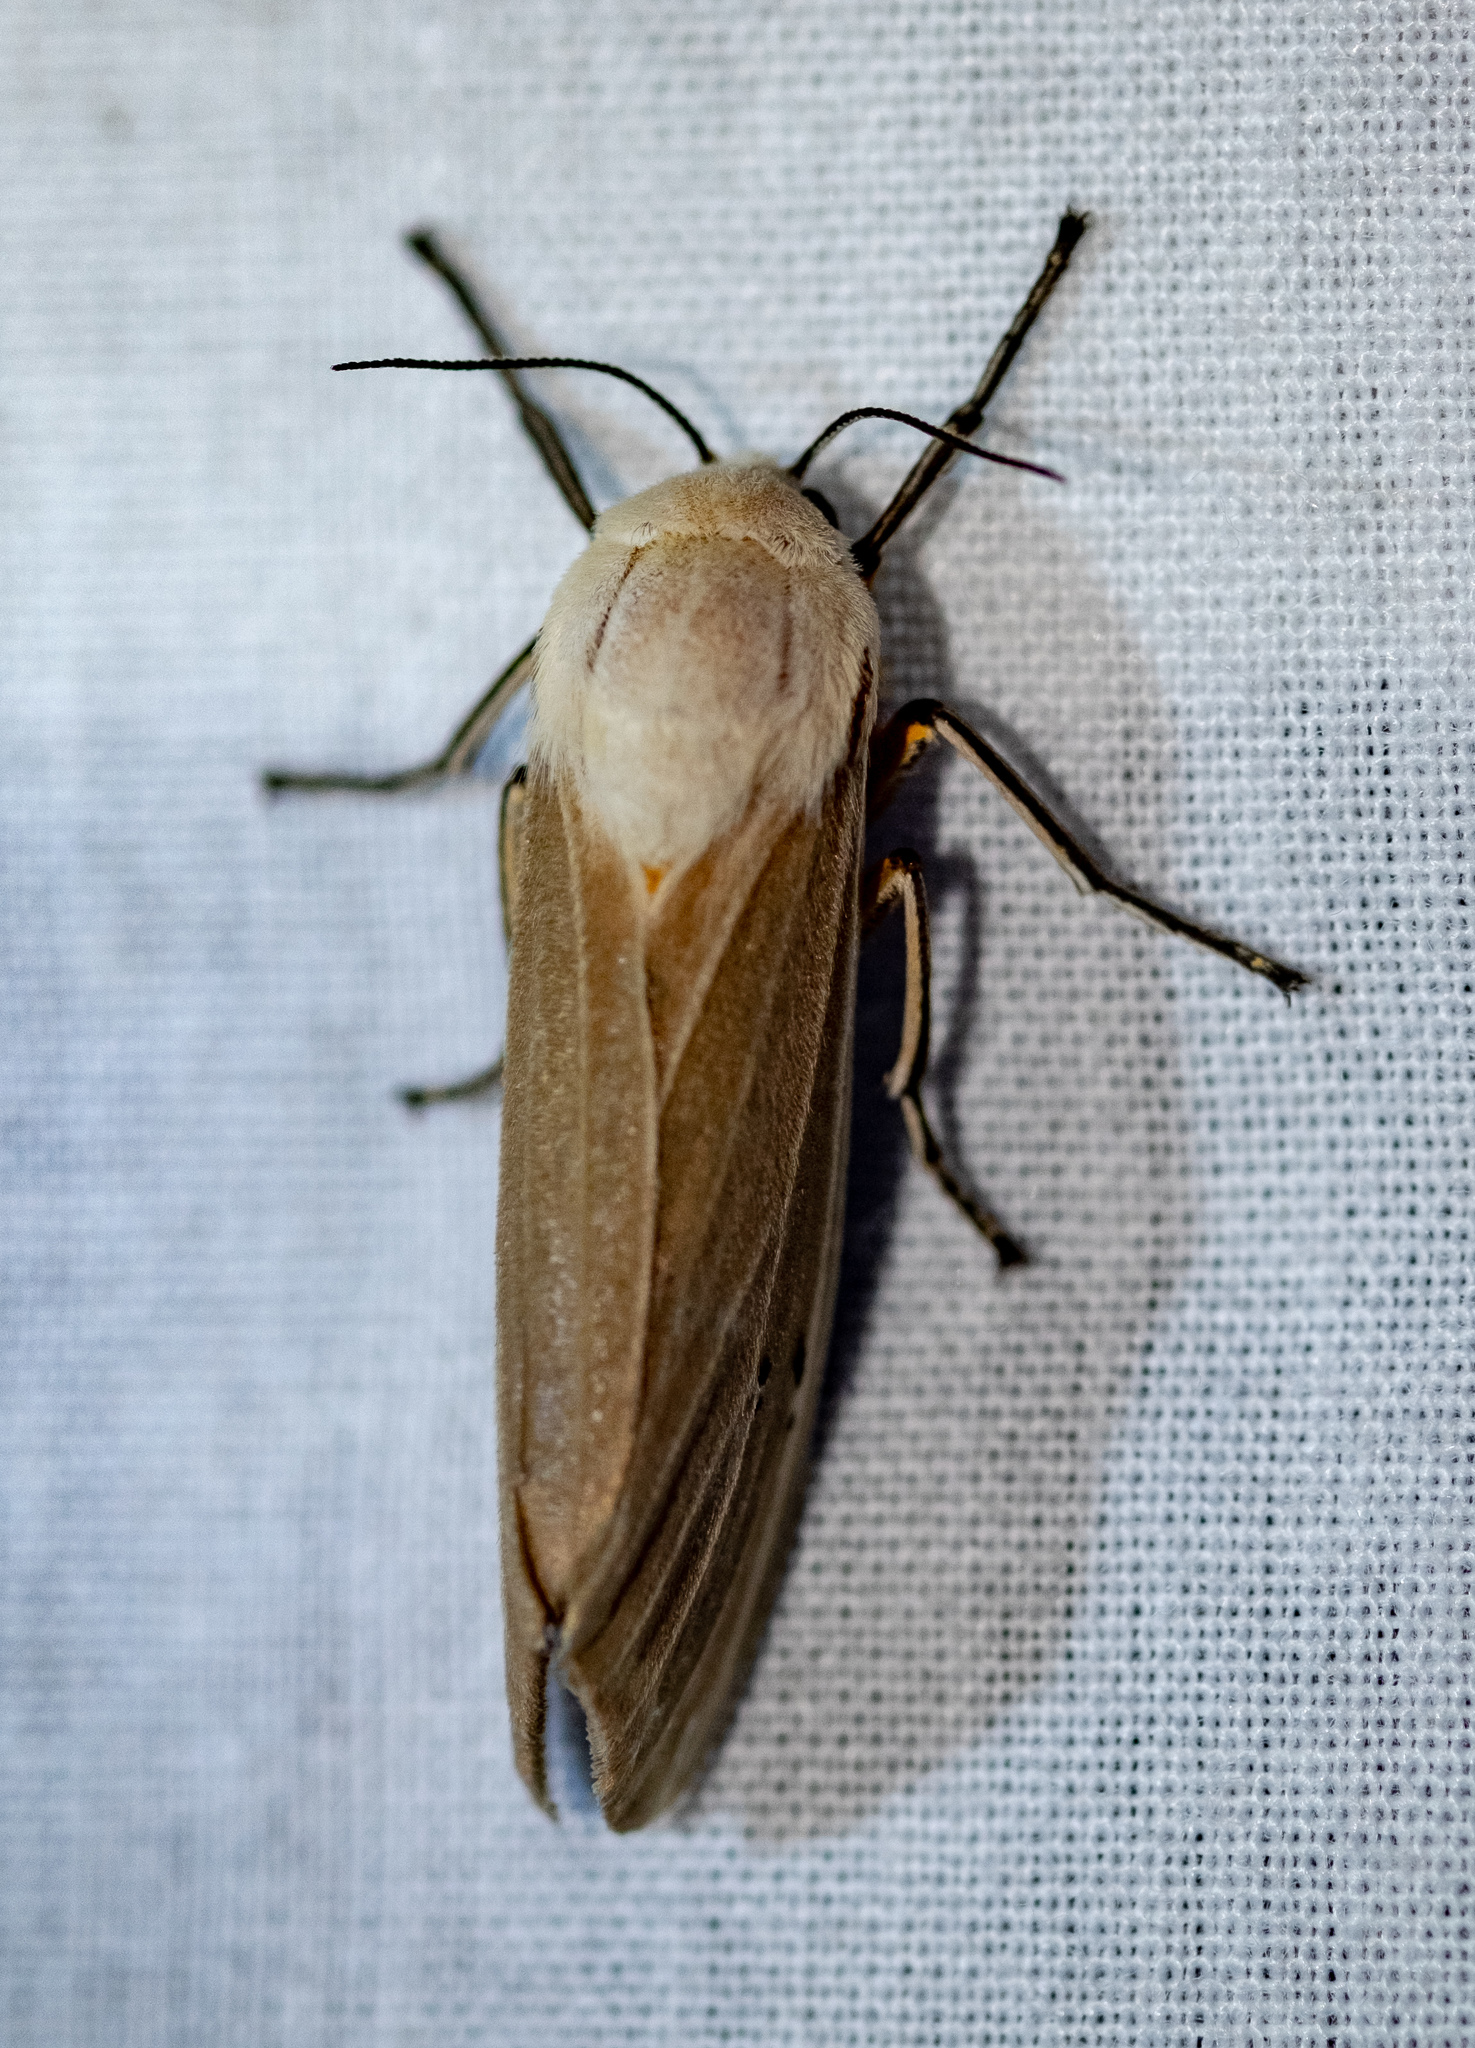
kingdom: Animalia
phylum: Arthropoda
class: Insecta
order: Lepidoptera
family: Erebidae
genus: Creatonotos
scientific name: Creatonotos transiens
